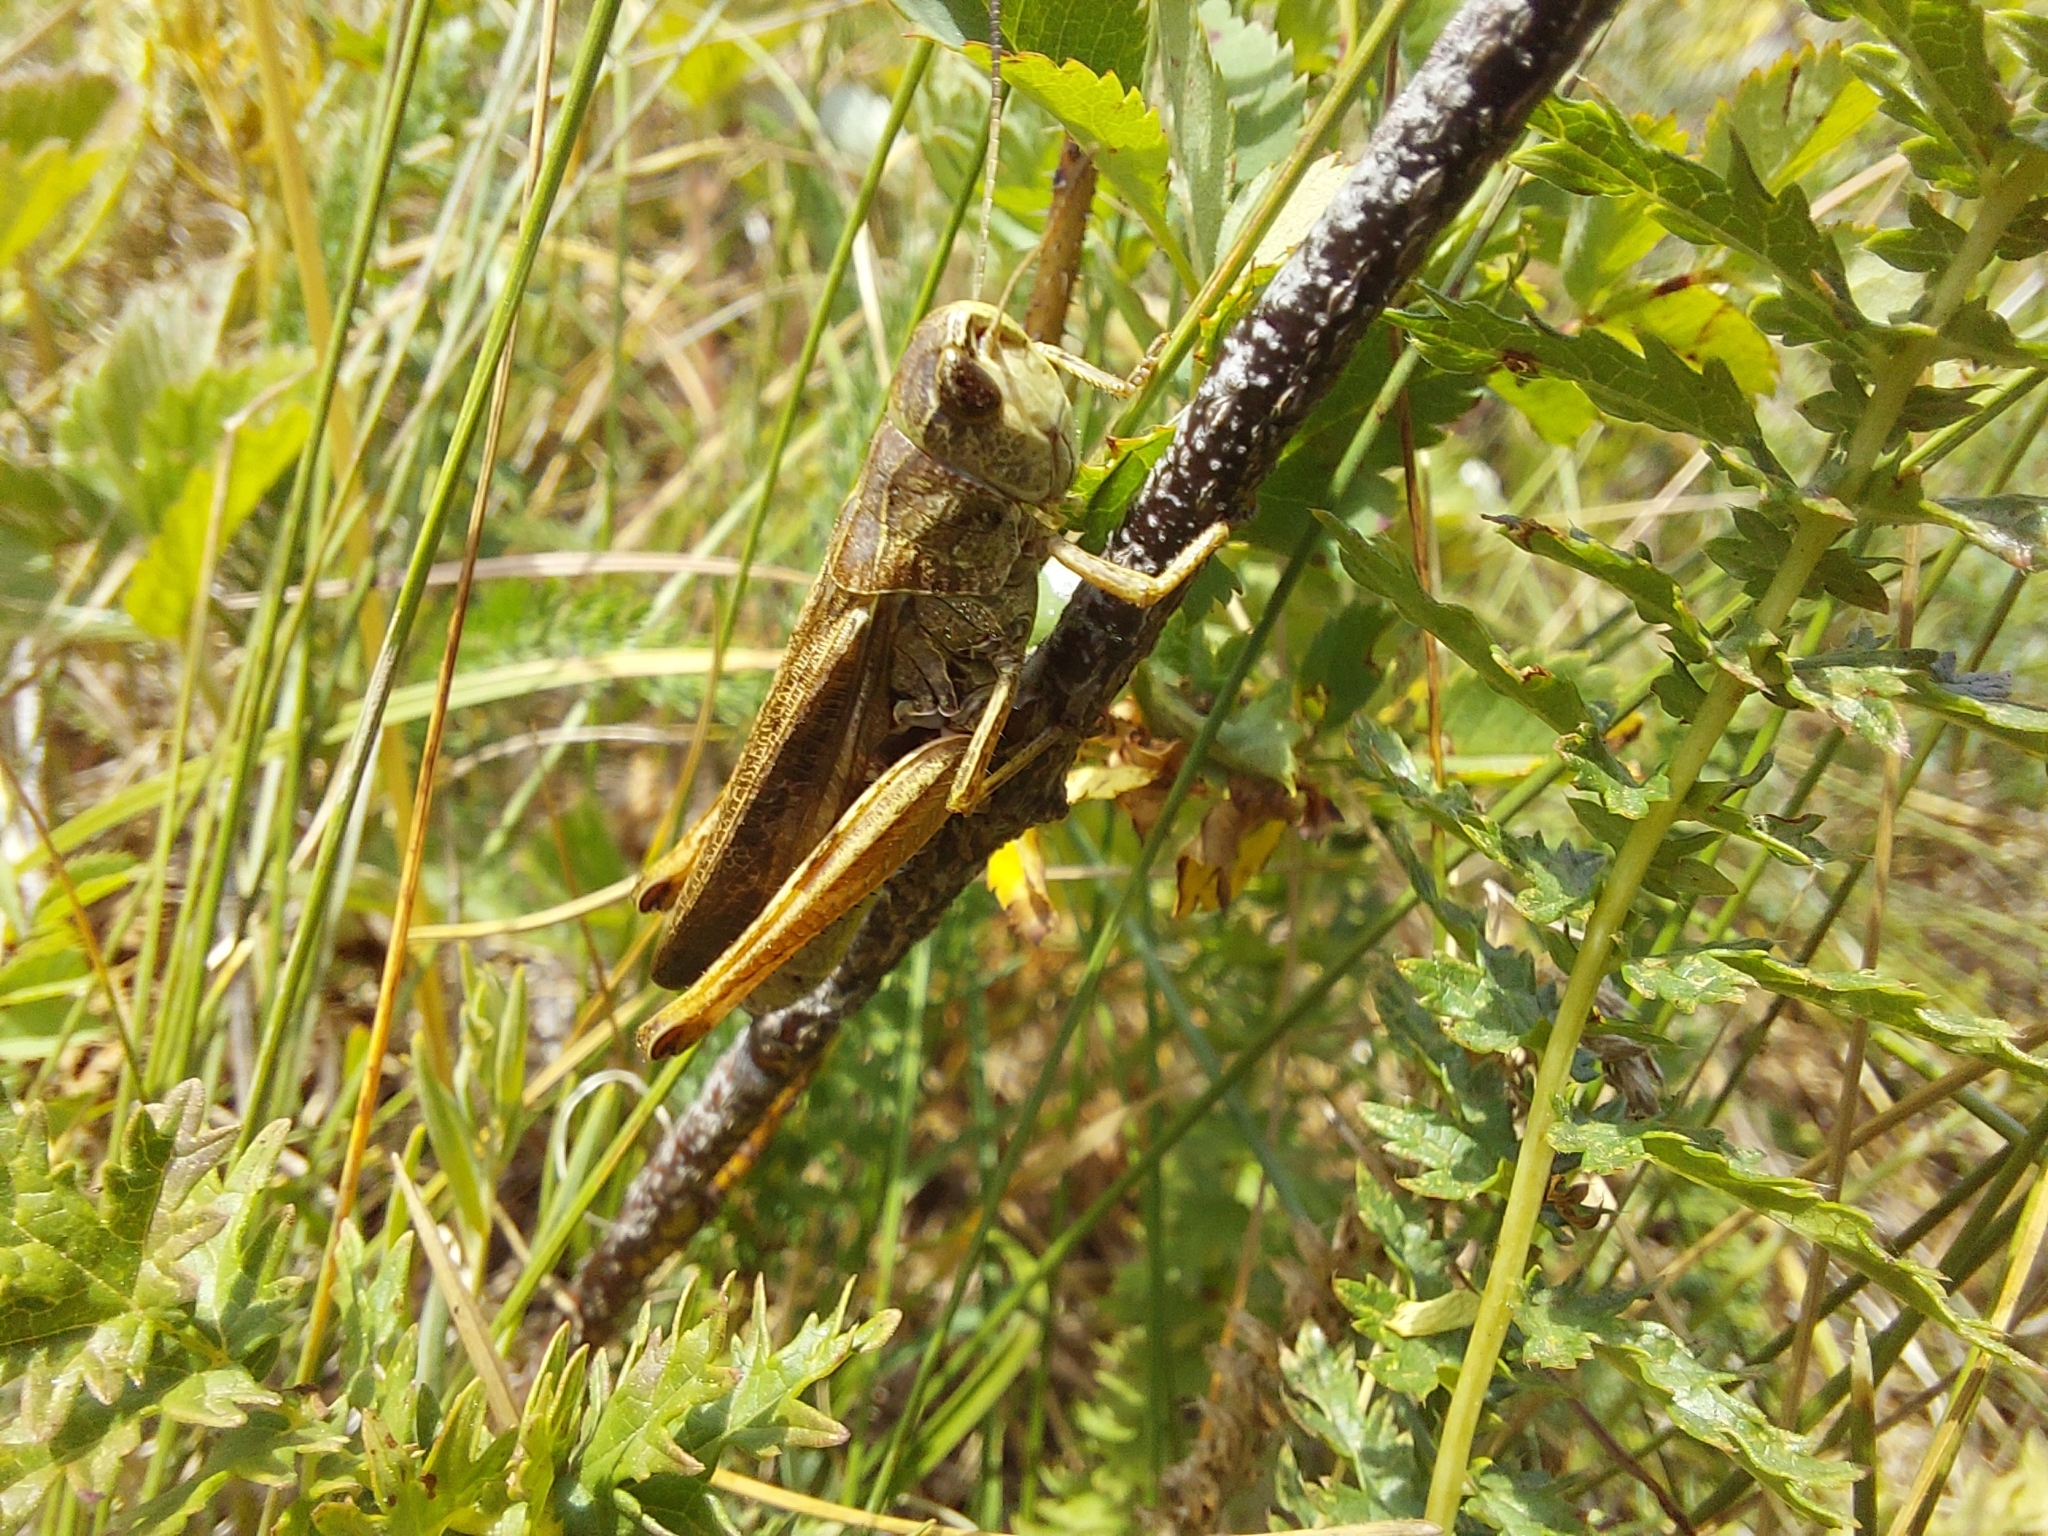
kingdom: Animalia
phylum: Arthropoda
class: Insecta
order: Orthoptera
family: Acrididae
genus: Stauroderus
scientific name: Stauroderus scalaris
